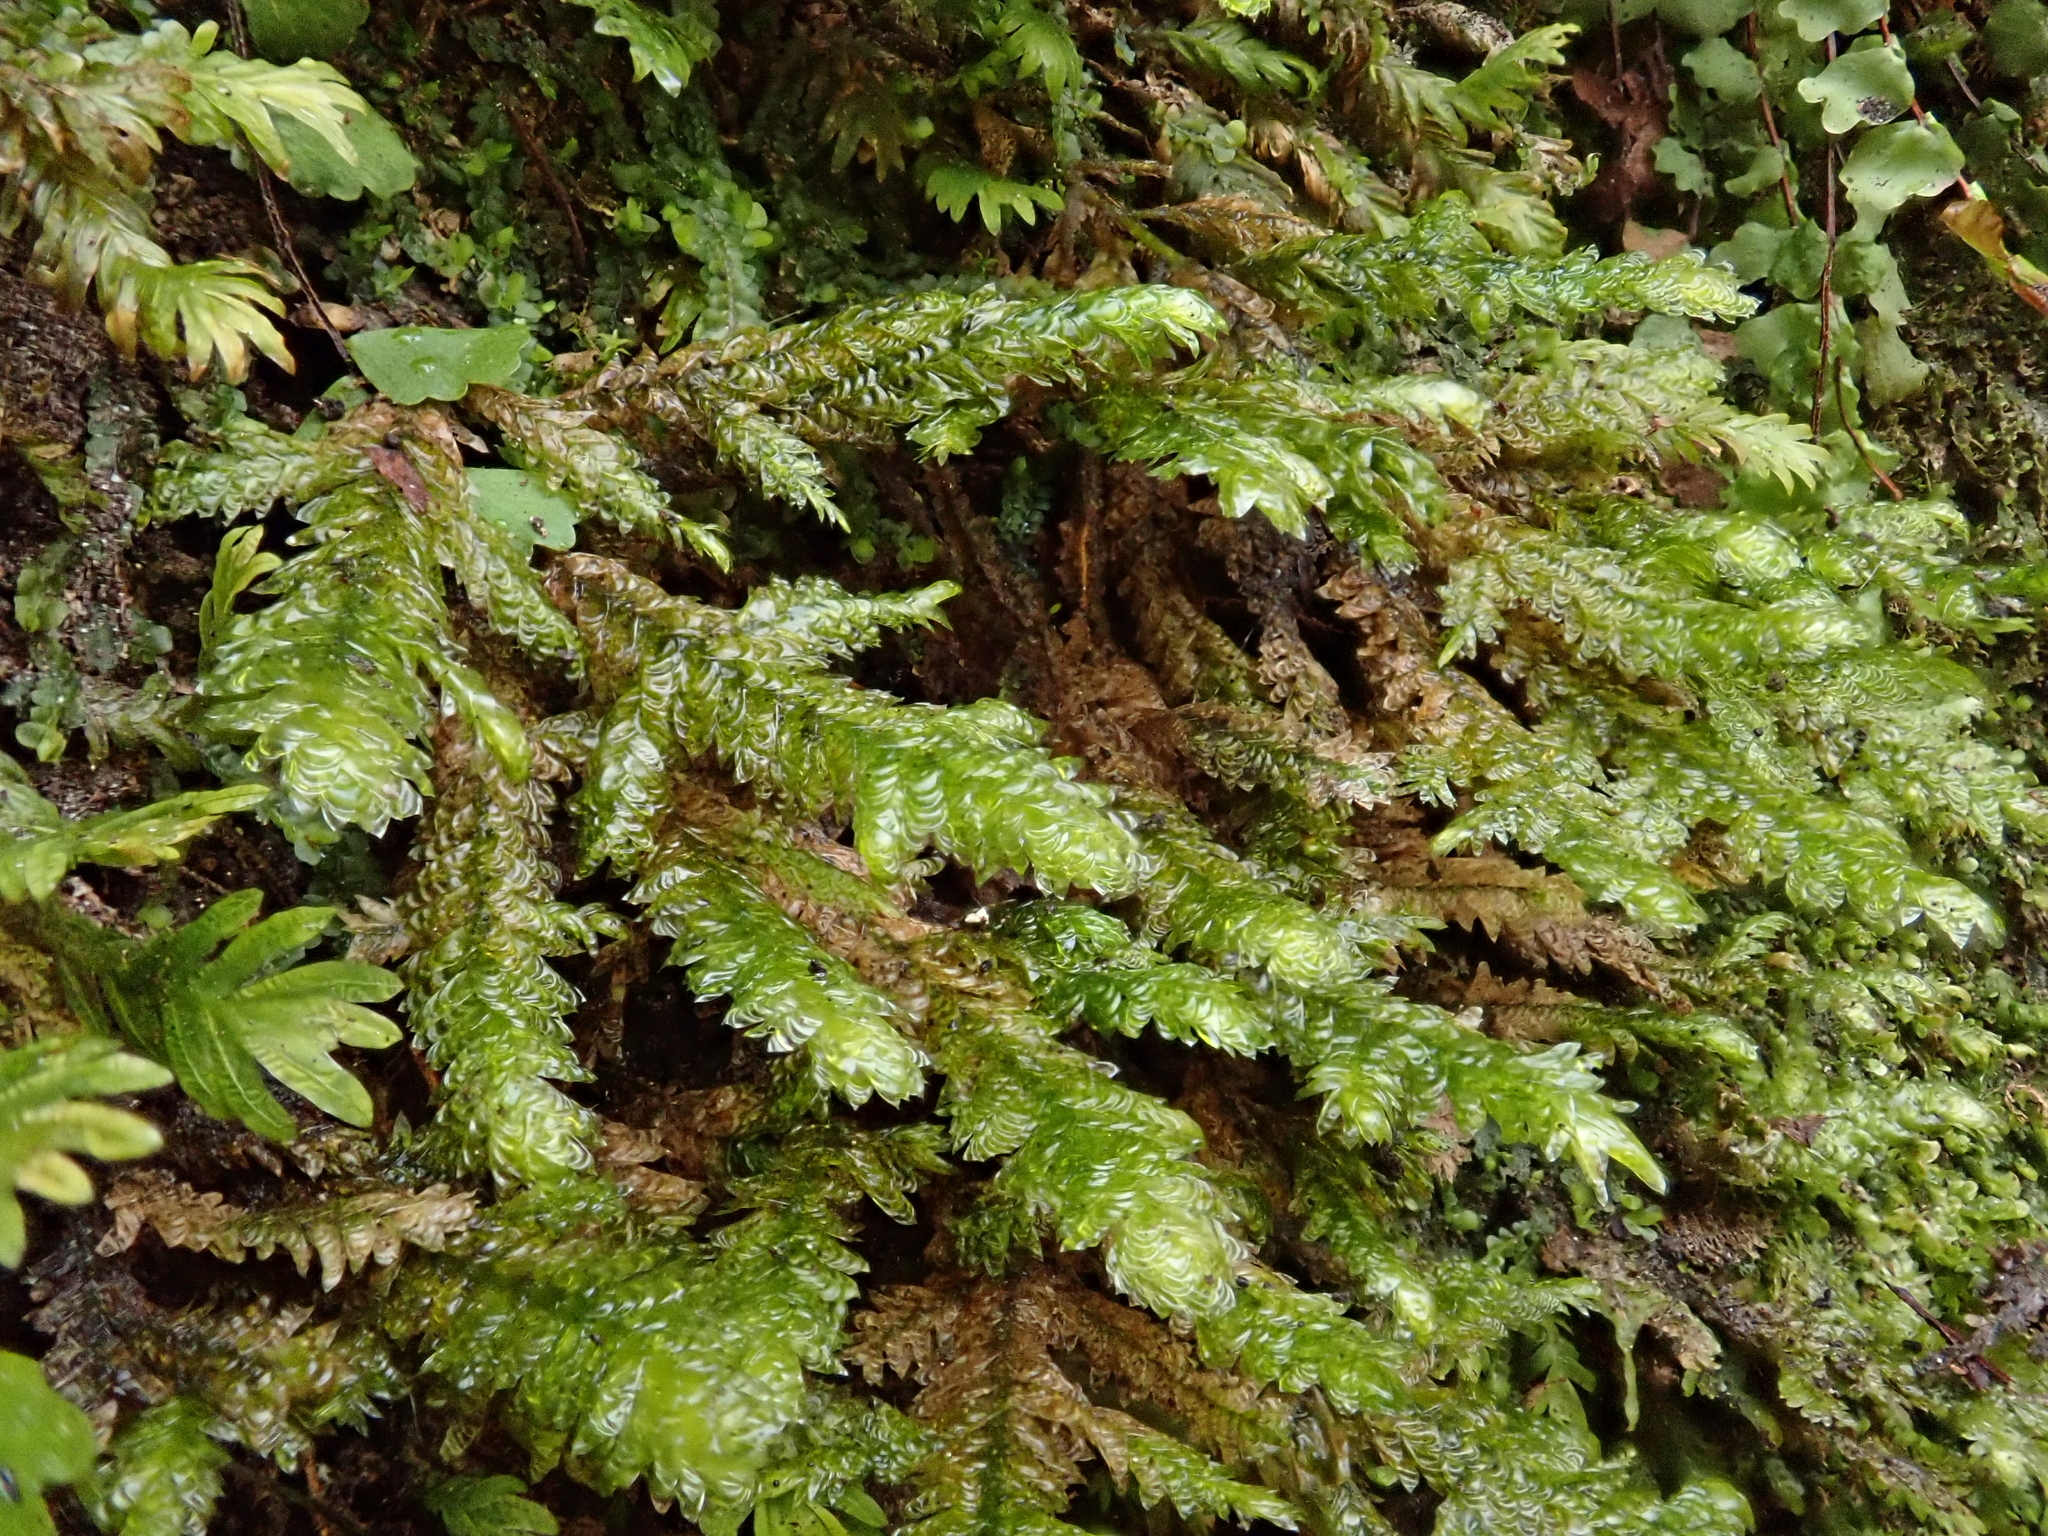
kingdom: Plantae
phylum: Bryophyta
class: Bryopsida
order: Hypnales
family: Neckeraceae
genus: Exsertotheca
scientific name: Exsertotheca crispa
